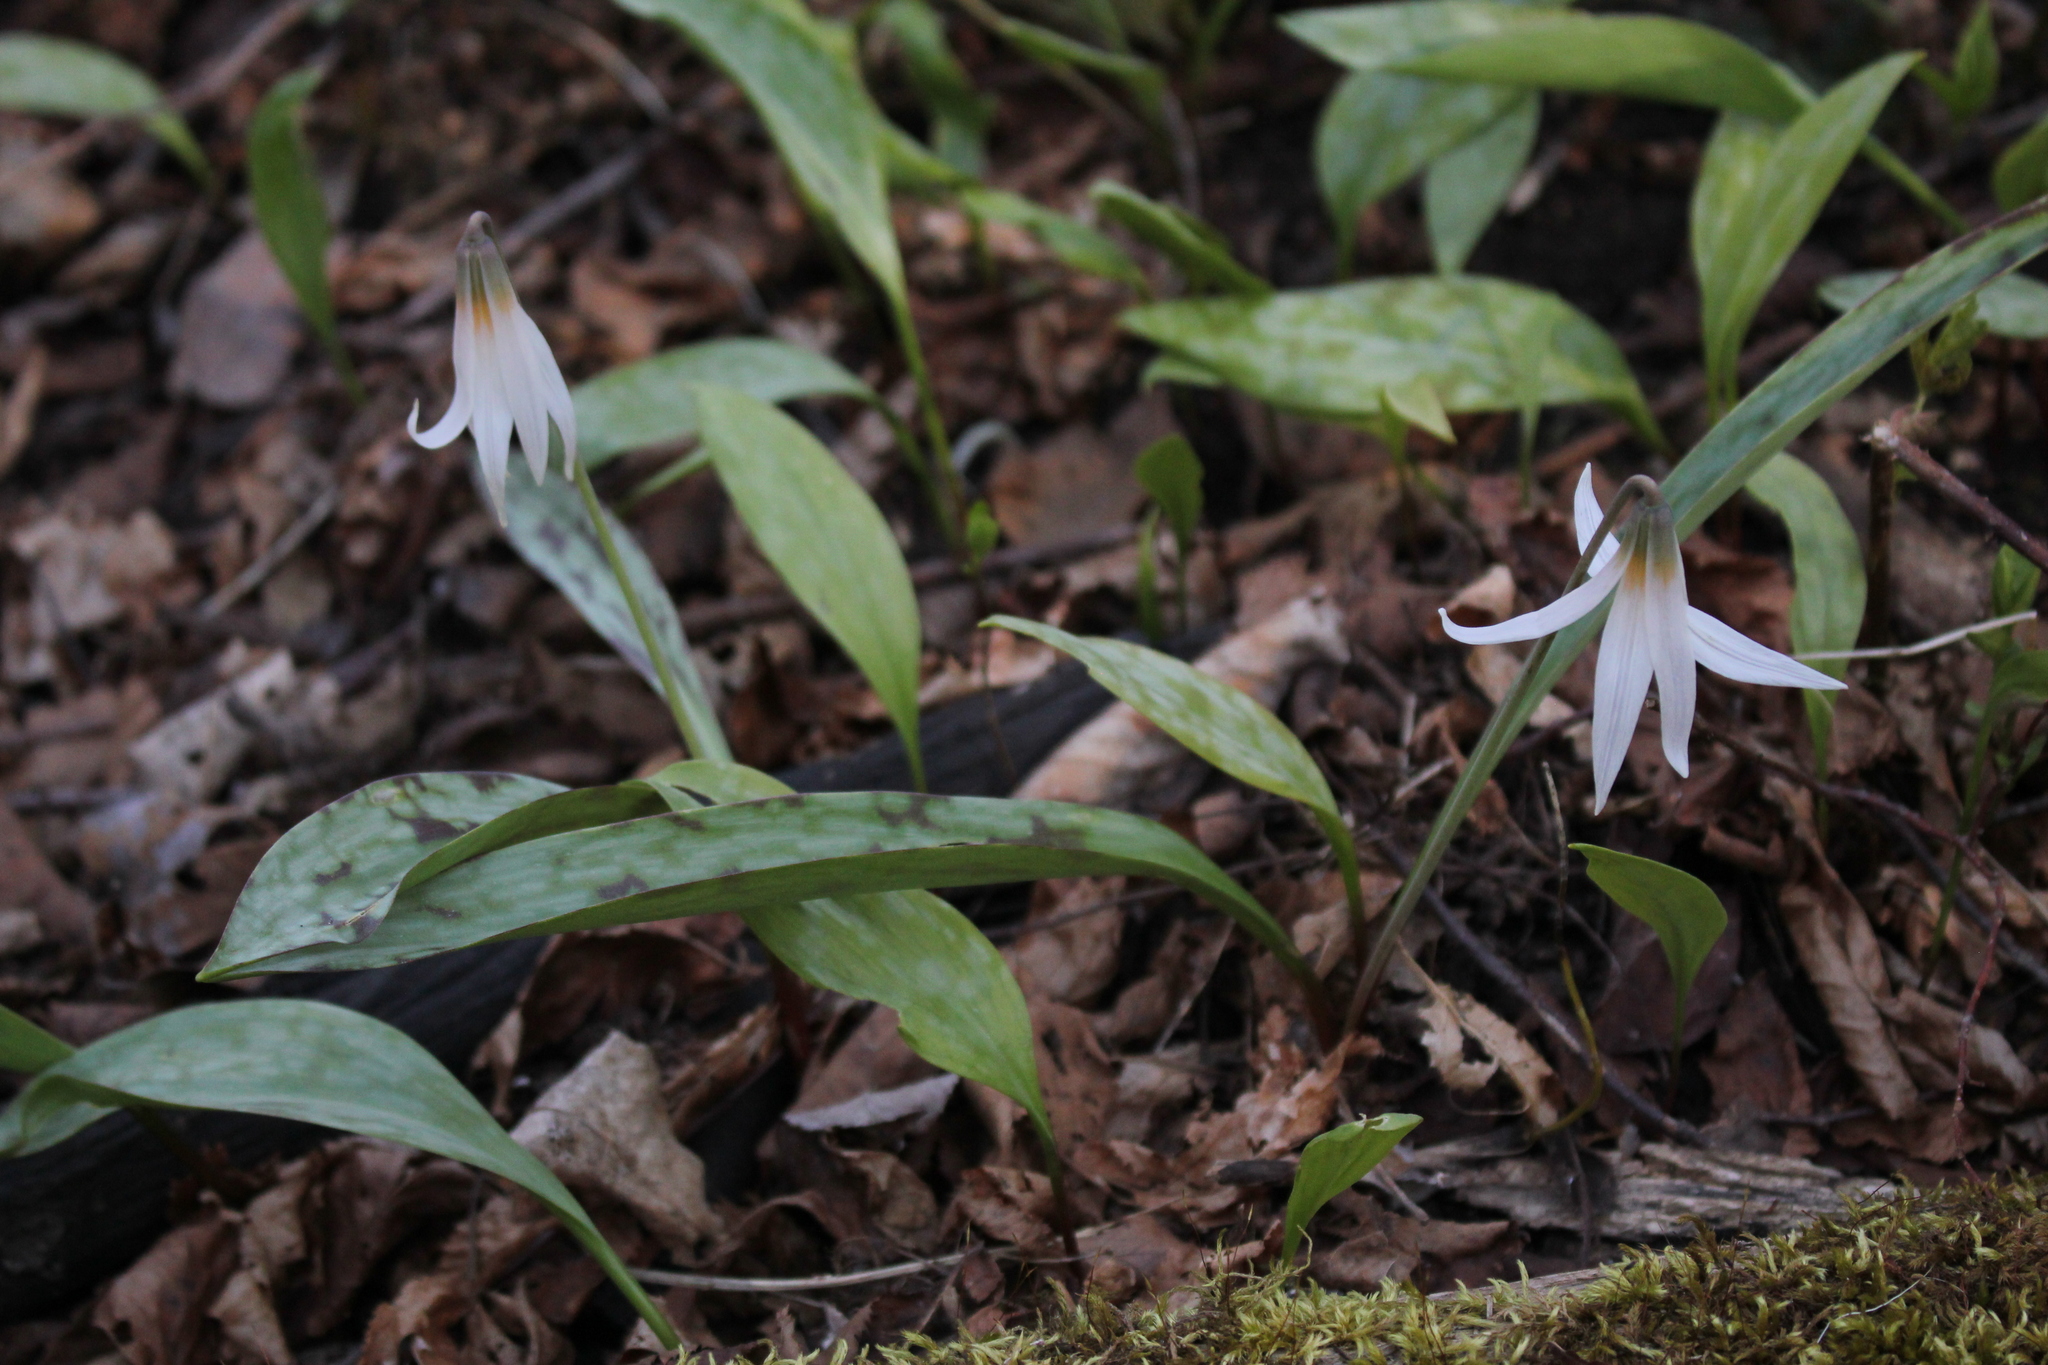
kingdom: Plantae
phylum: Tracheophyta
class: Liliopsida
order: Liliales
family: Liliaceae
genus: Erythronium
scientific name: Erythronium albidum
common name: White trout-lily
